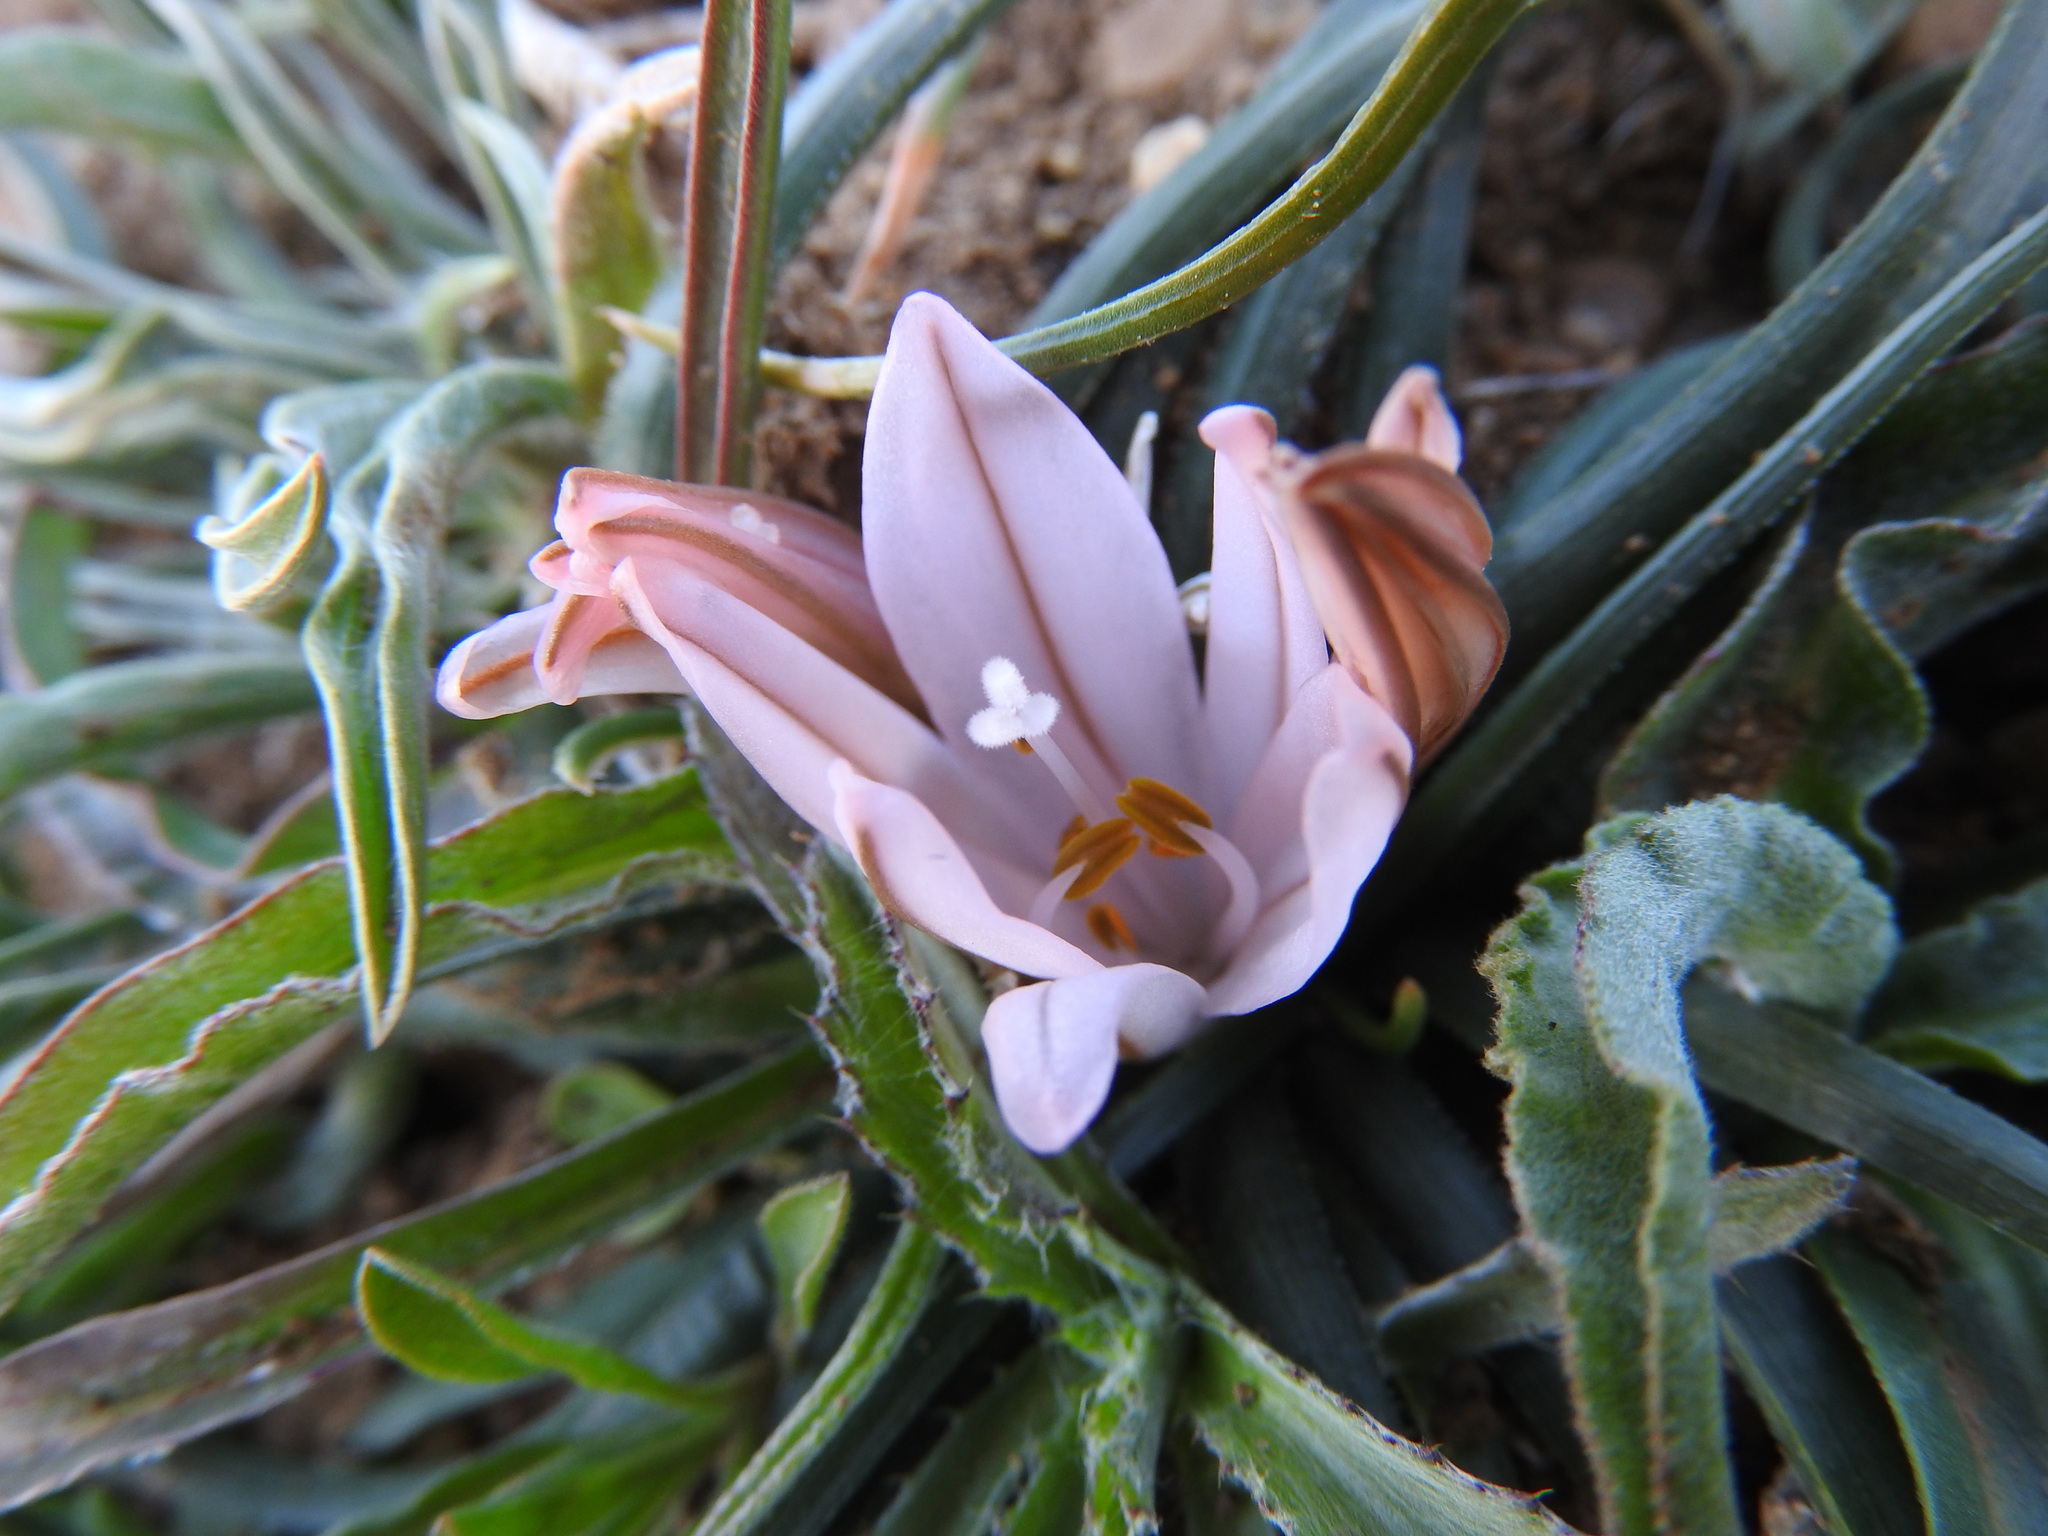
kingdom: Plantae
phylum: Tracheophyta
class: Liliopsida
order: Asparagales
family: Asphodelaceae
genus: Asphodelus
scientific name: Asphodelus acaulis
